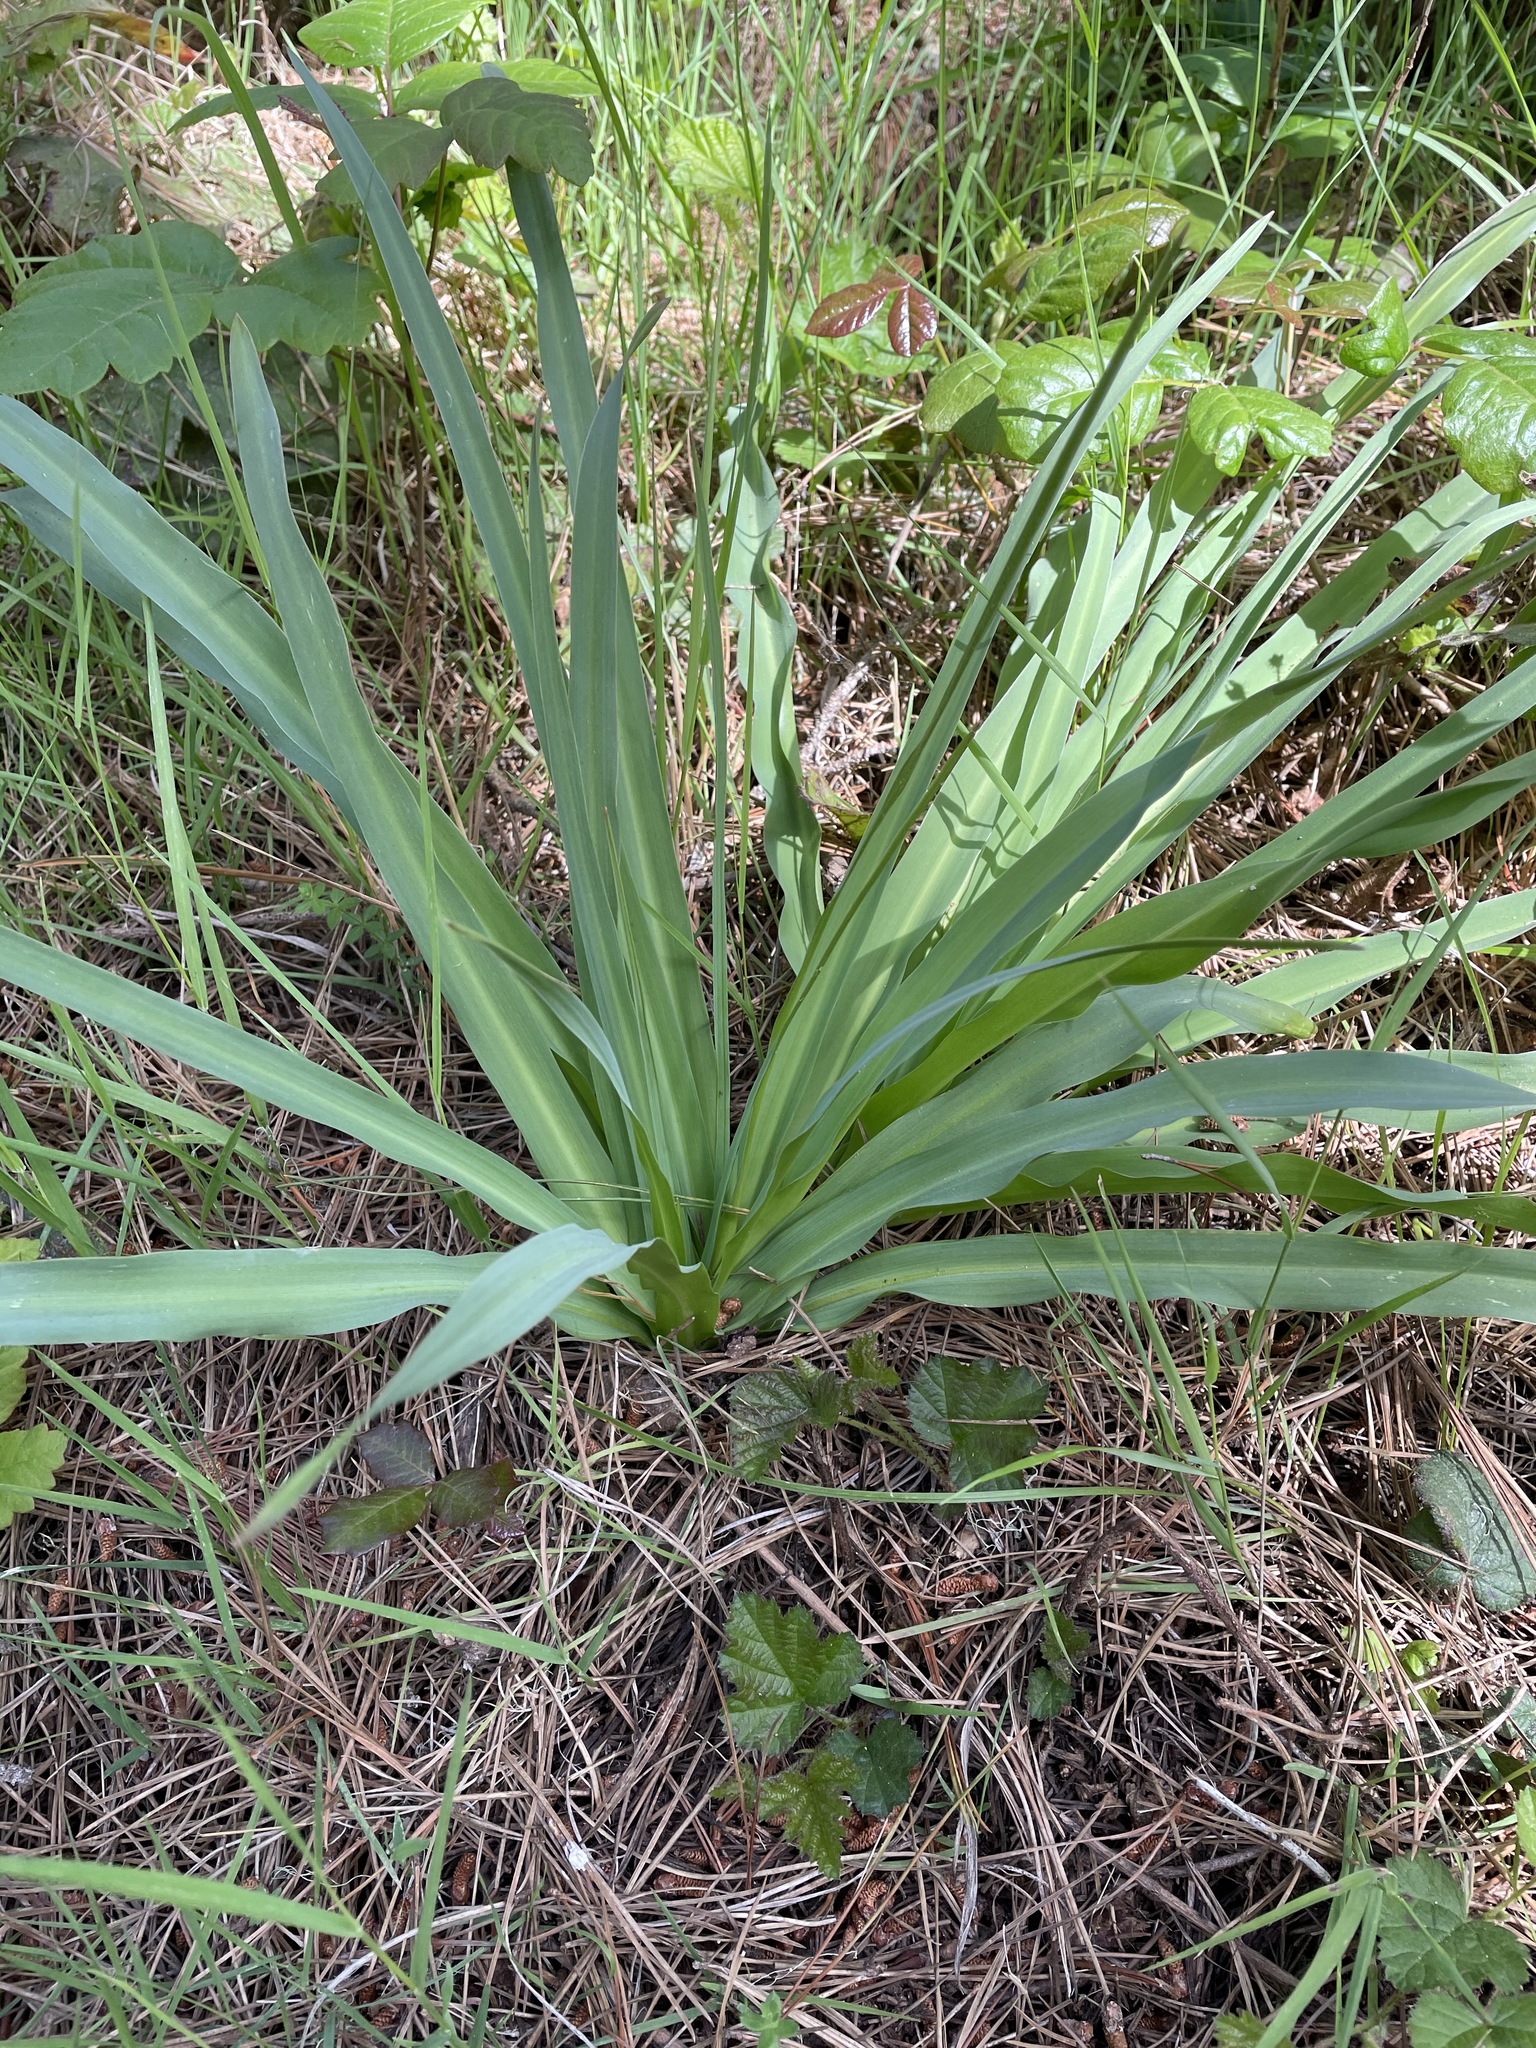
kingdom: Plantae
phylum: Tracheophyta
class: Liliopsida
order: Asparagales
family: Asparagaceae
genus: Chlorogalum
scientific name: Chlorogalum pomeridianum
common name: Amole
